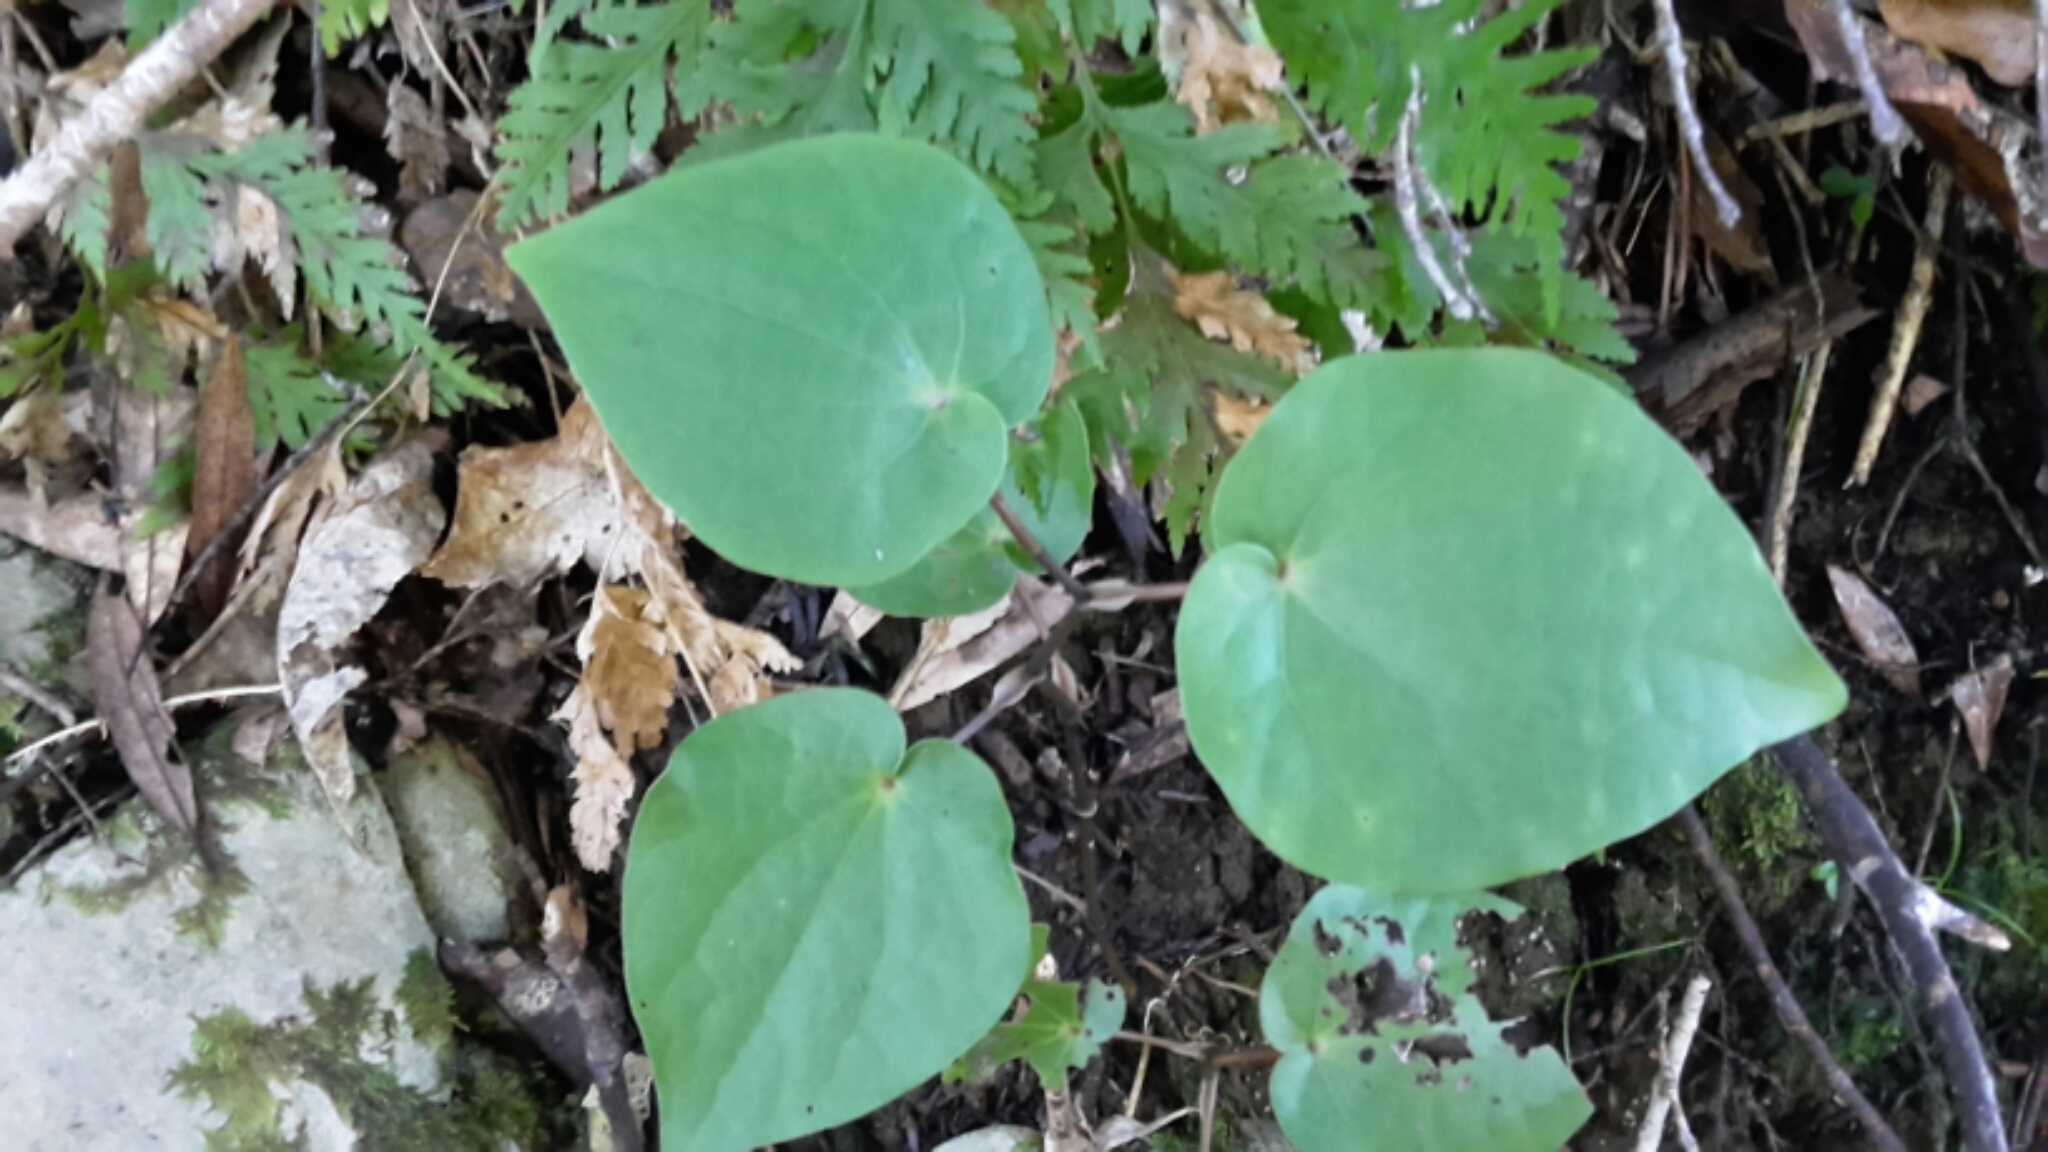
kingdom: Plantae
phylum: Tracheophyta
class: Magnoliopsida
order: Piperales
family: Piperaceae
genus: Macropiper
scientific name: Macropiper excelsum
